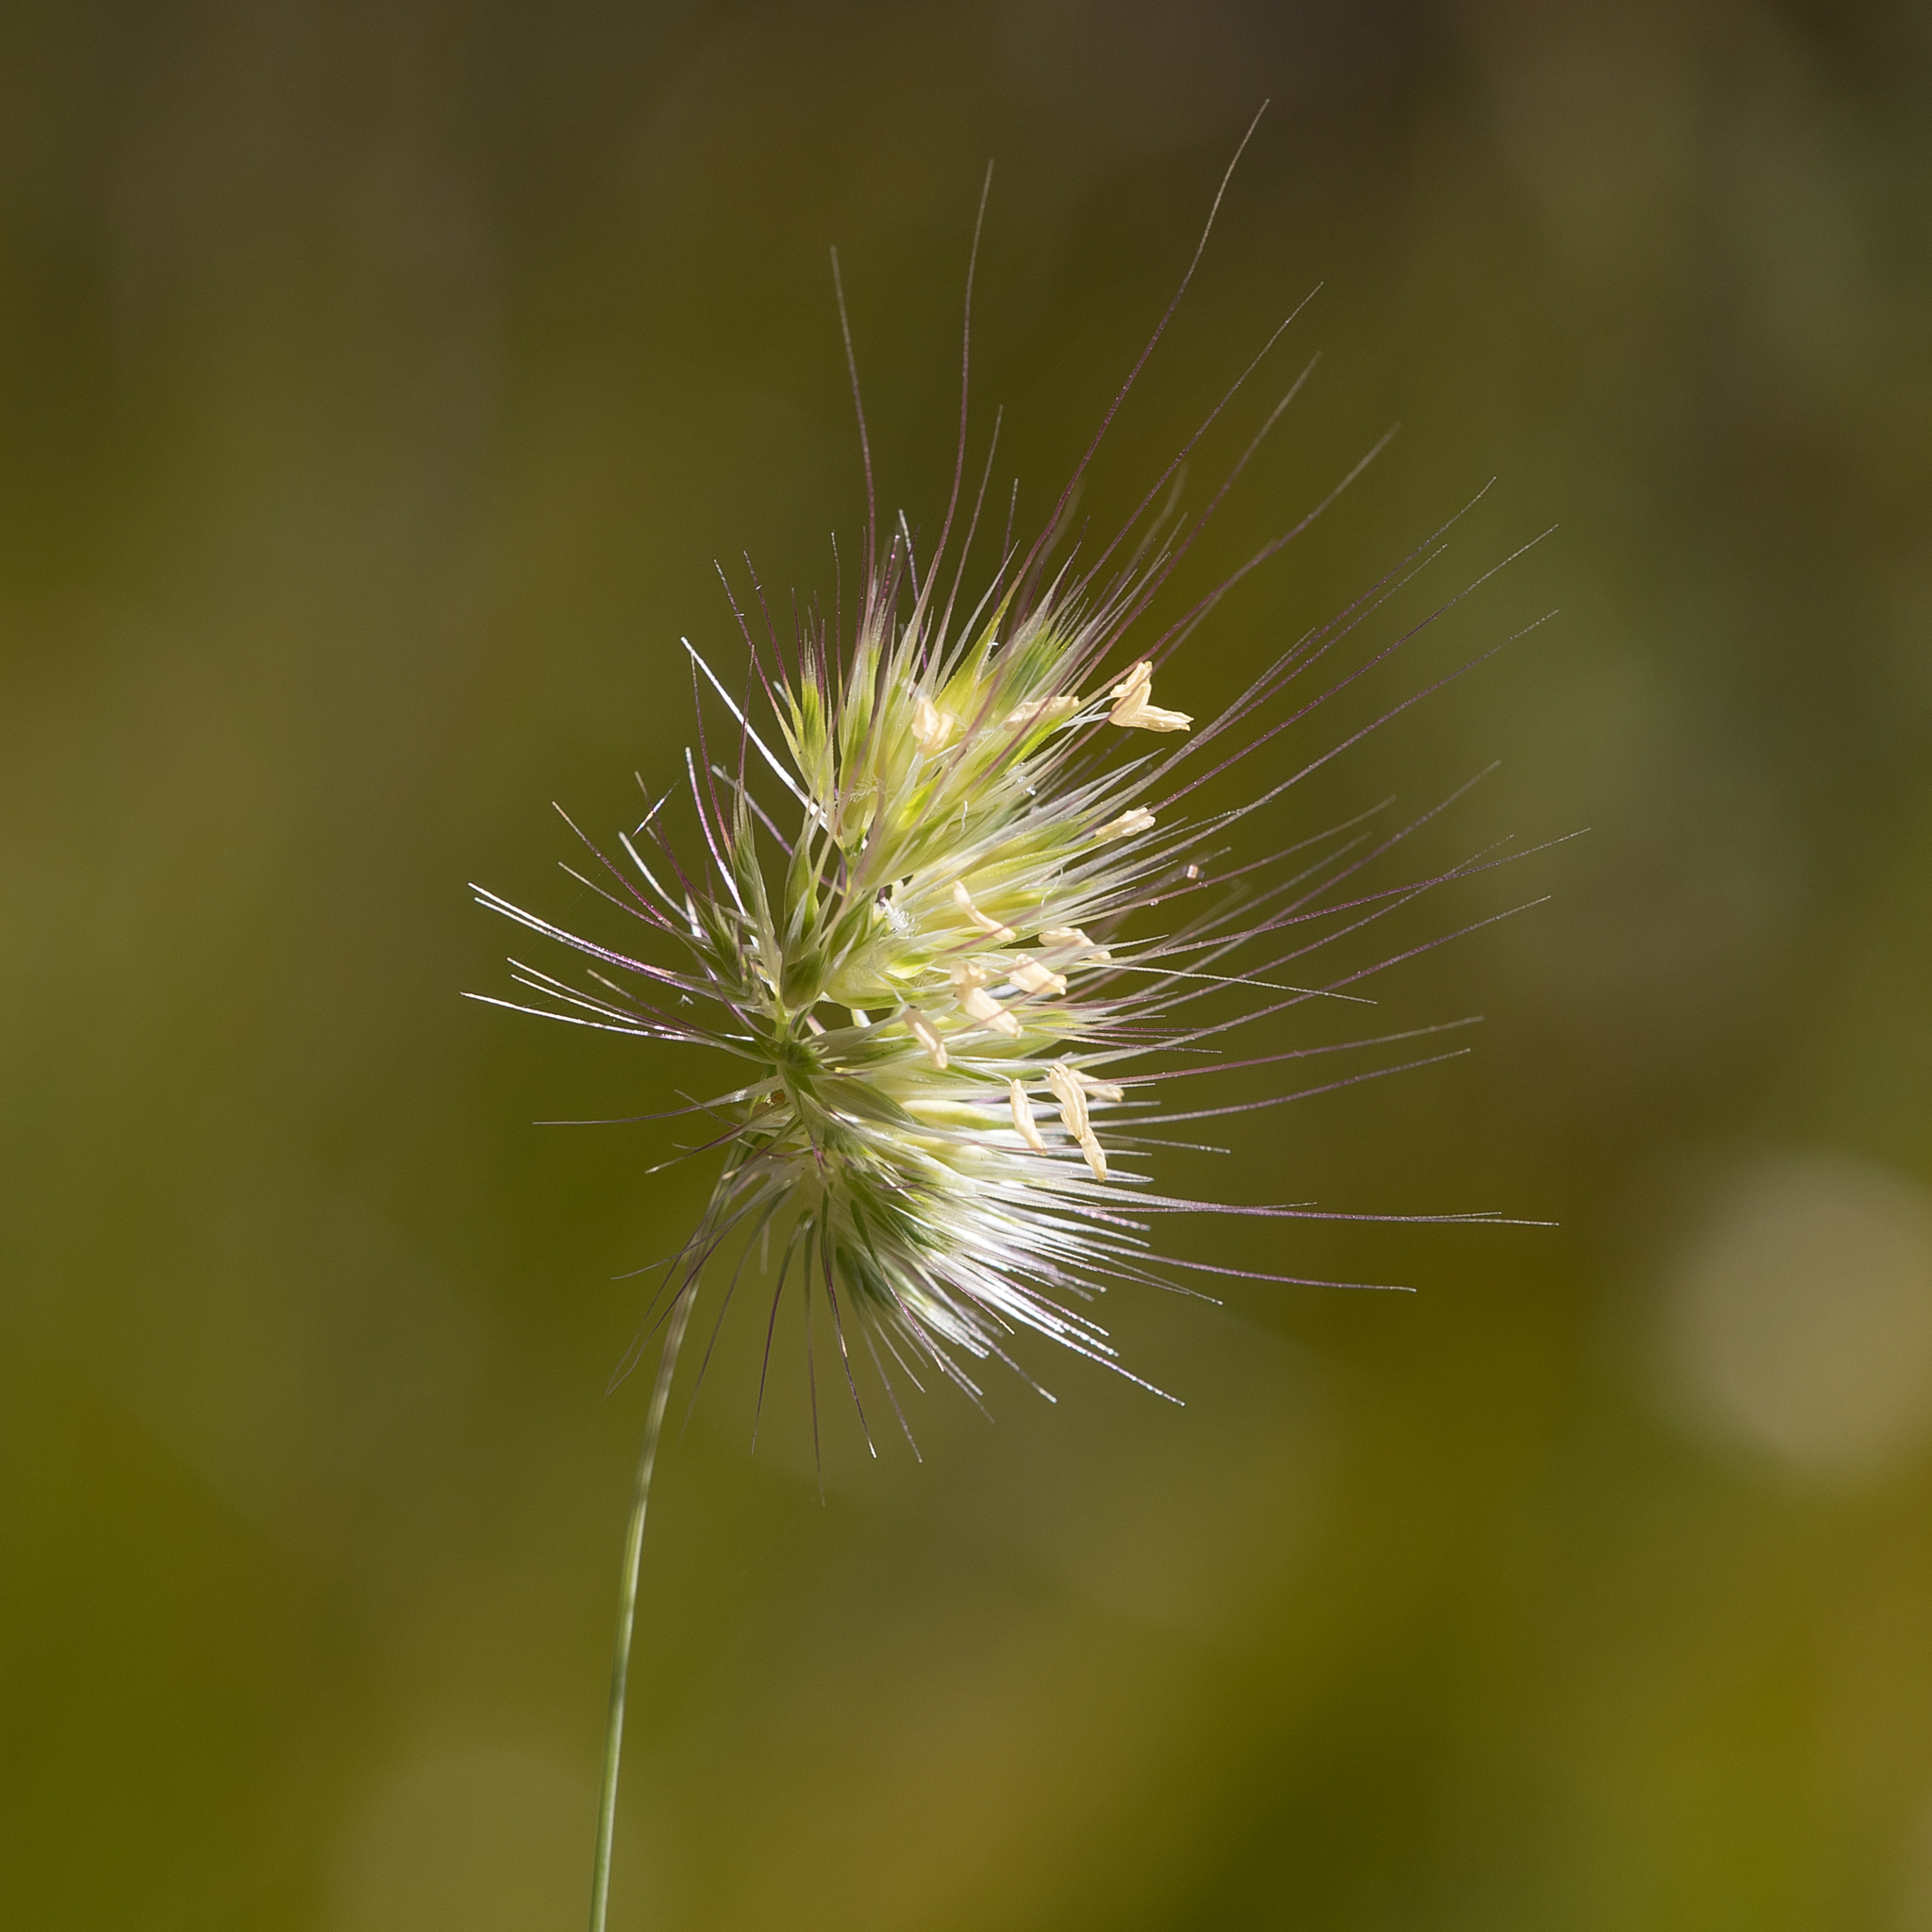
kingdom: Plantae
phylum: Tracheophyta
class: Liliopsida
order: Poales
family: Poaceae
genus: Cynosurus
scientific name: Cynosurus echinatus
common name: Rough dog's-tail
